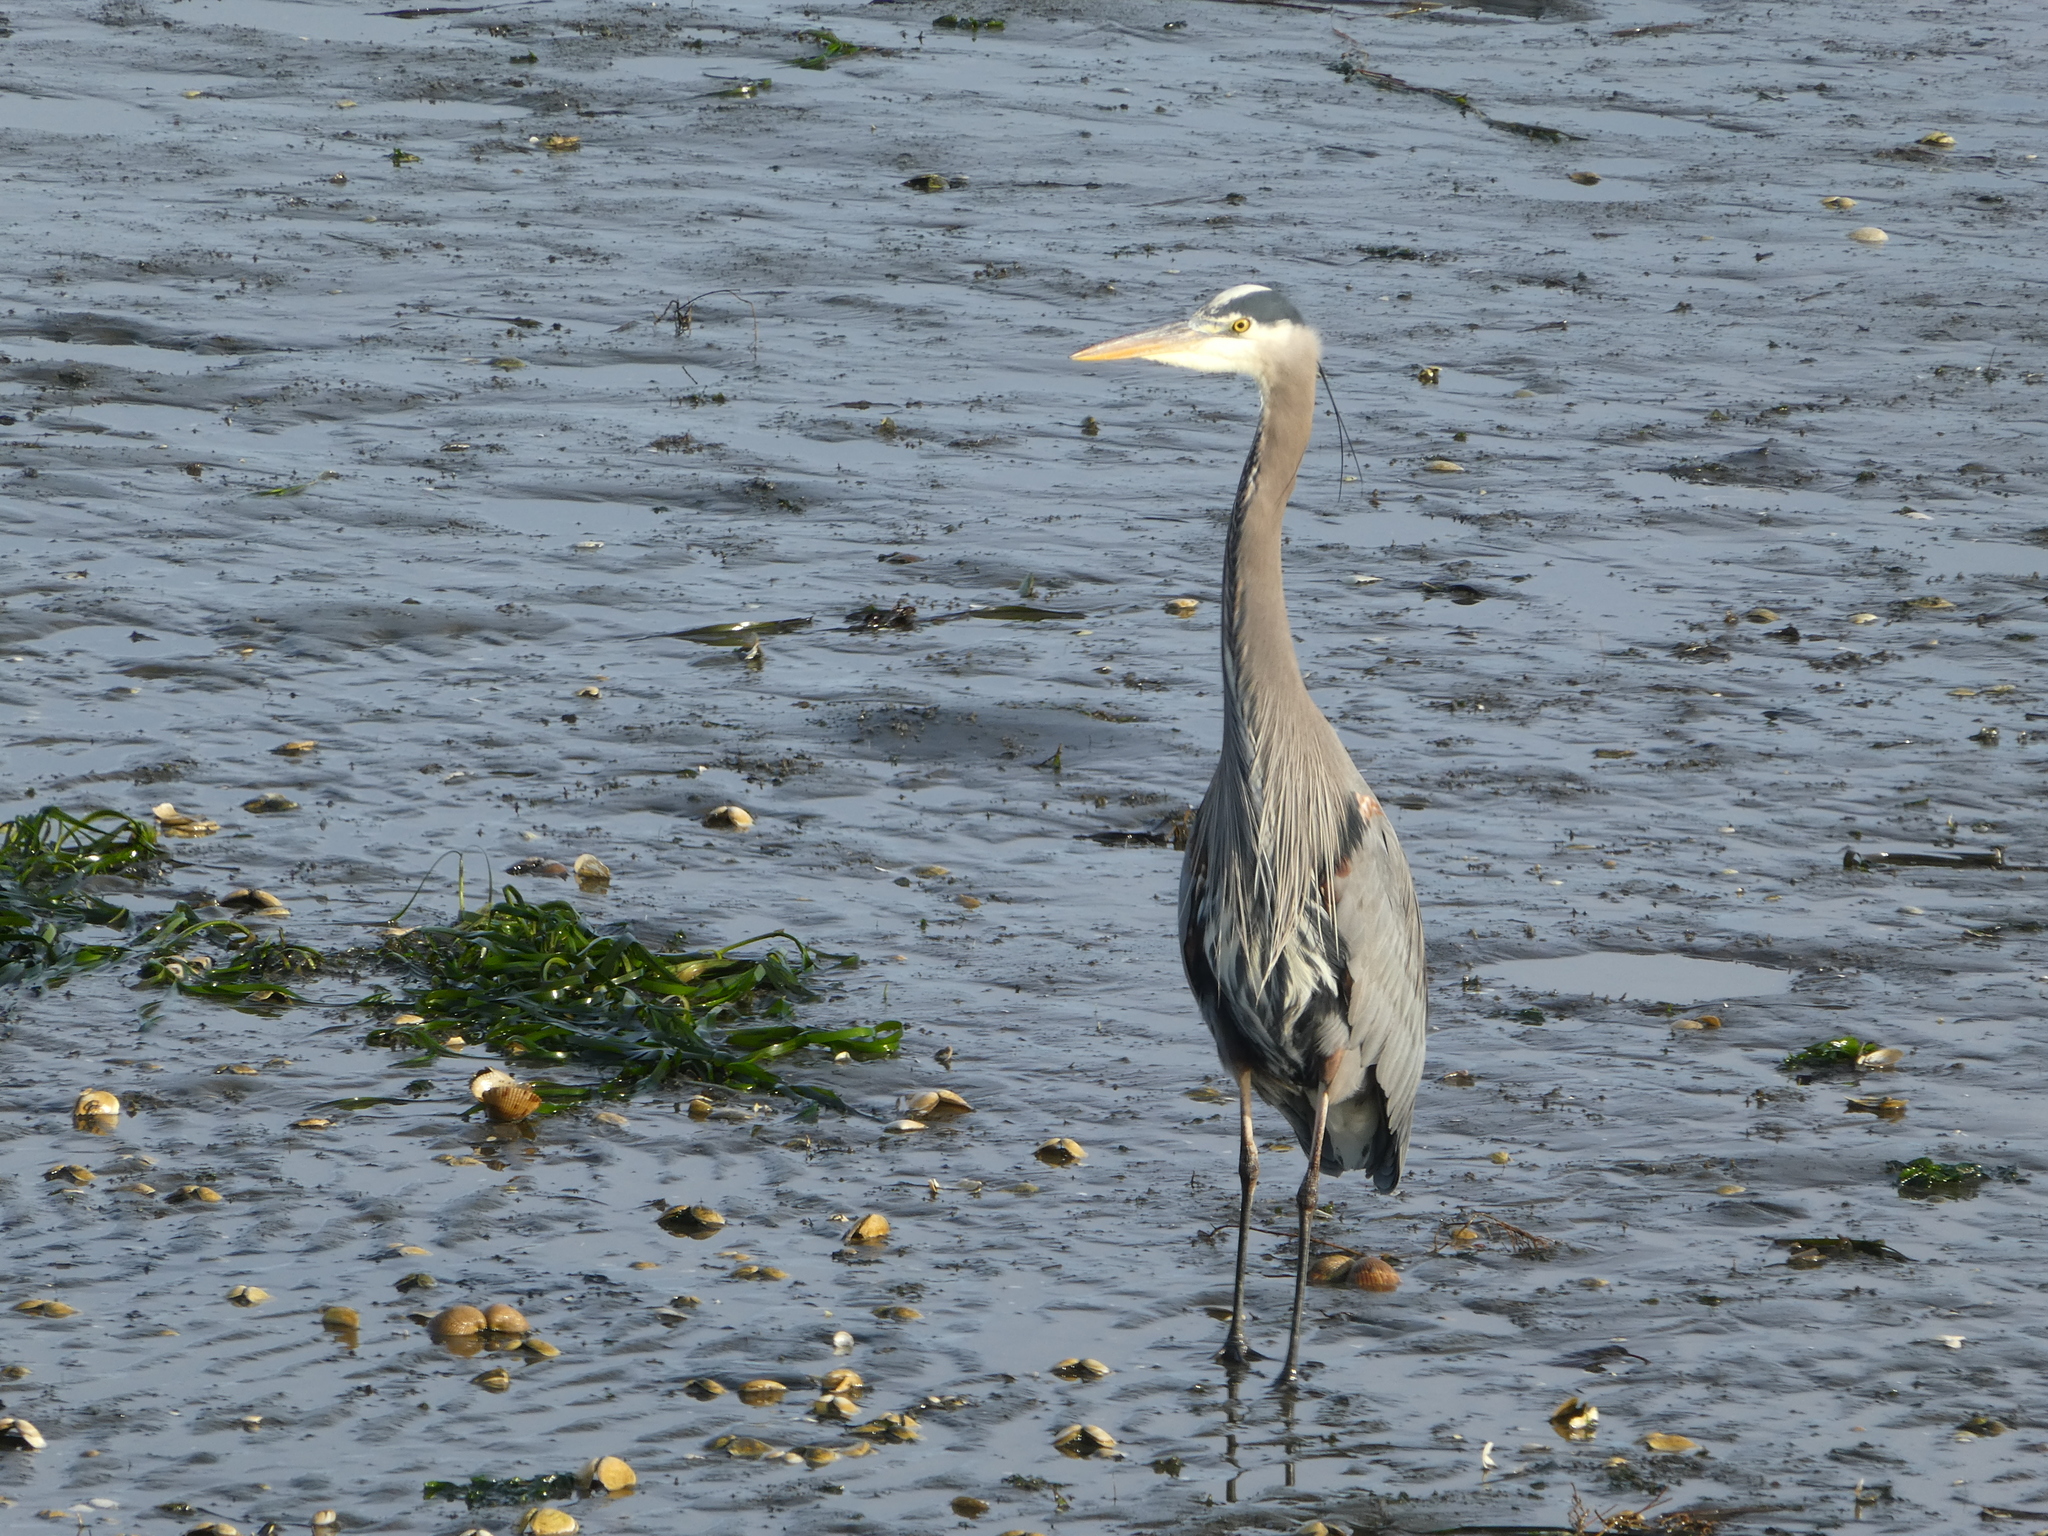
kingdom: Animalia
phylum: Chordata
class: Aves
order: Pelecaniformes
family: Ardeidae
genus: Ardea
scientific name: Ardea herodias
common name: Great blue heron
